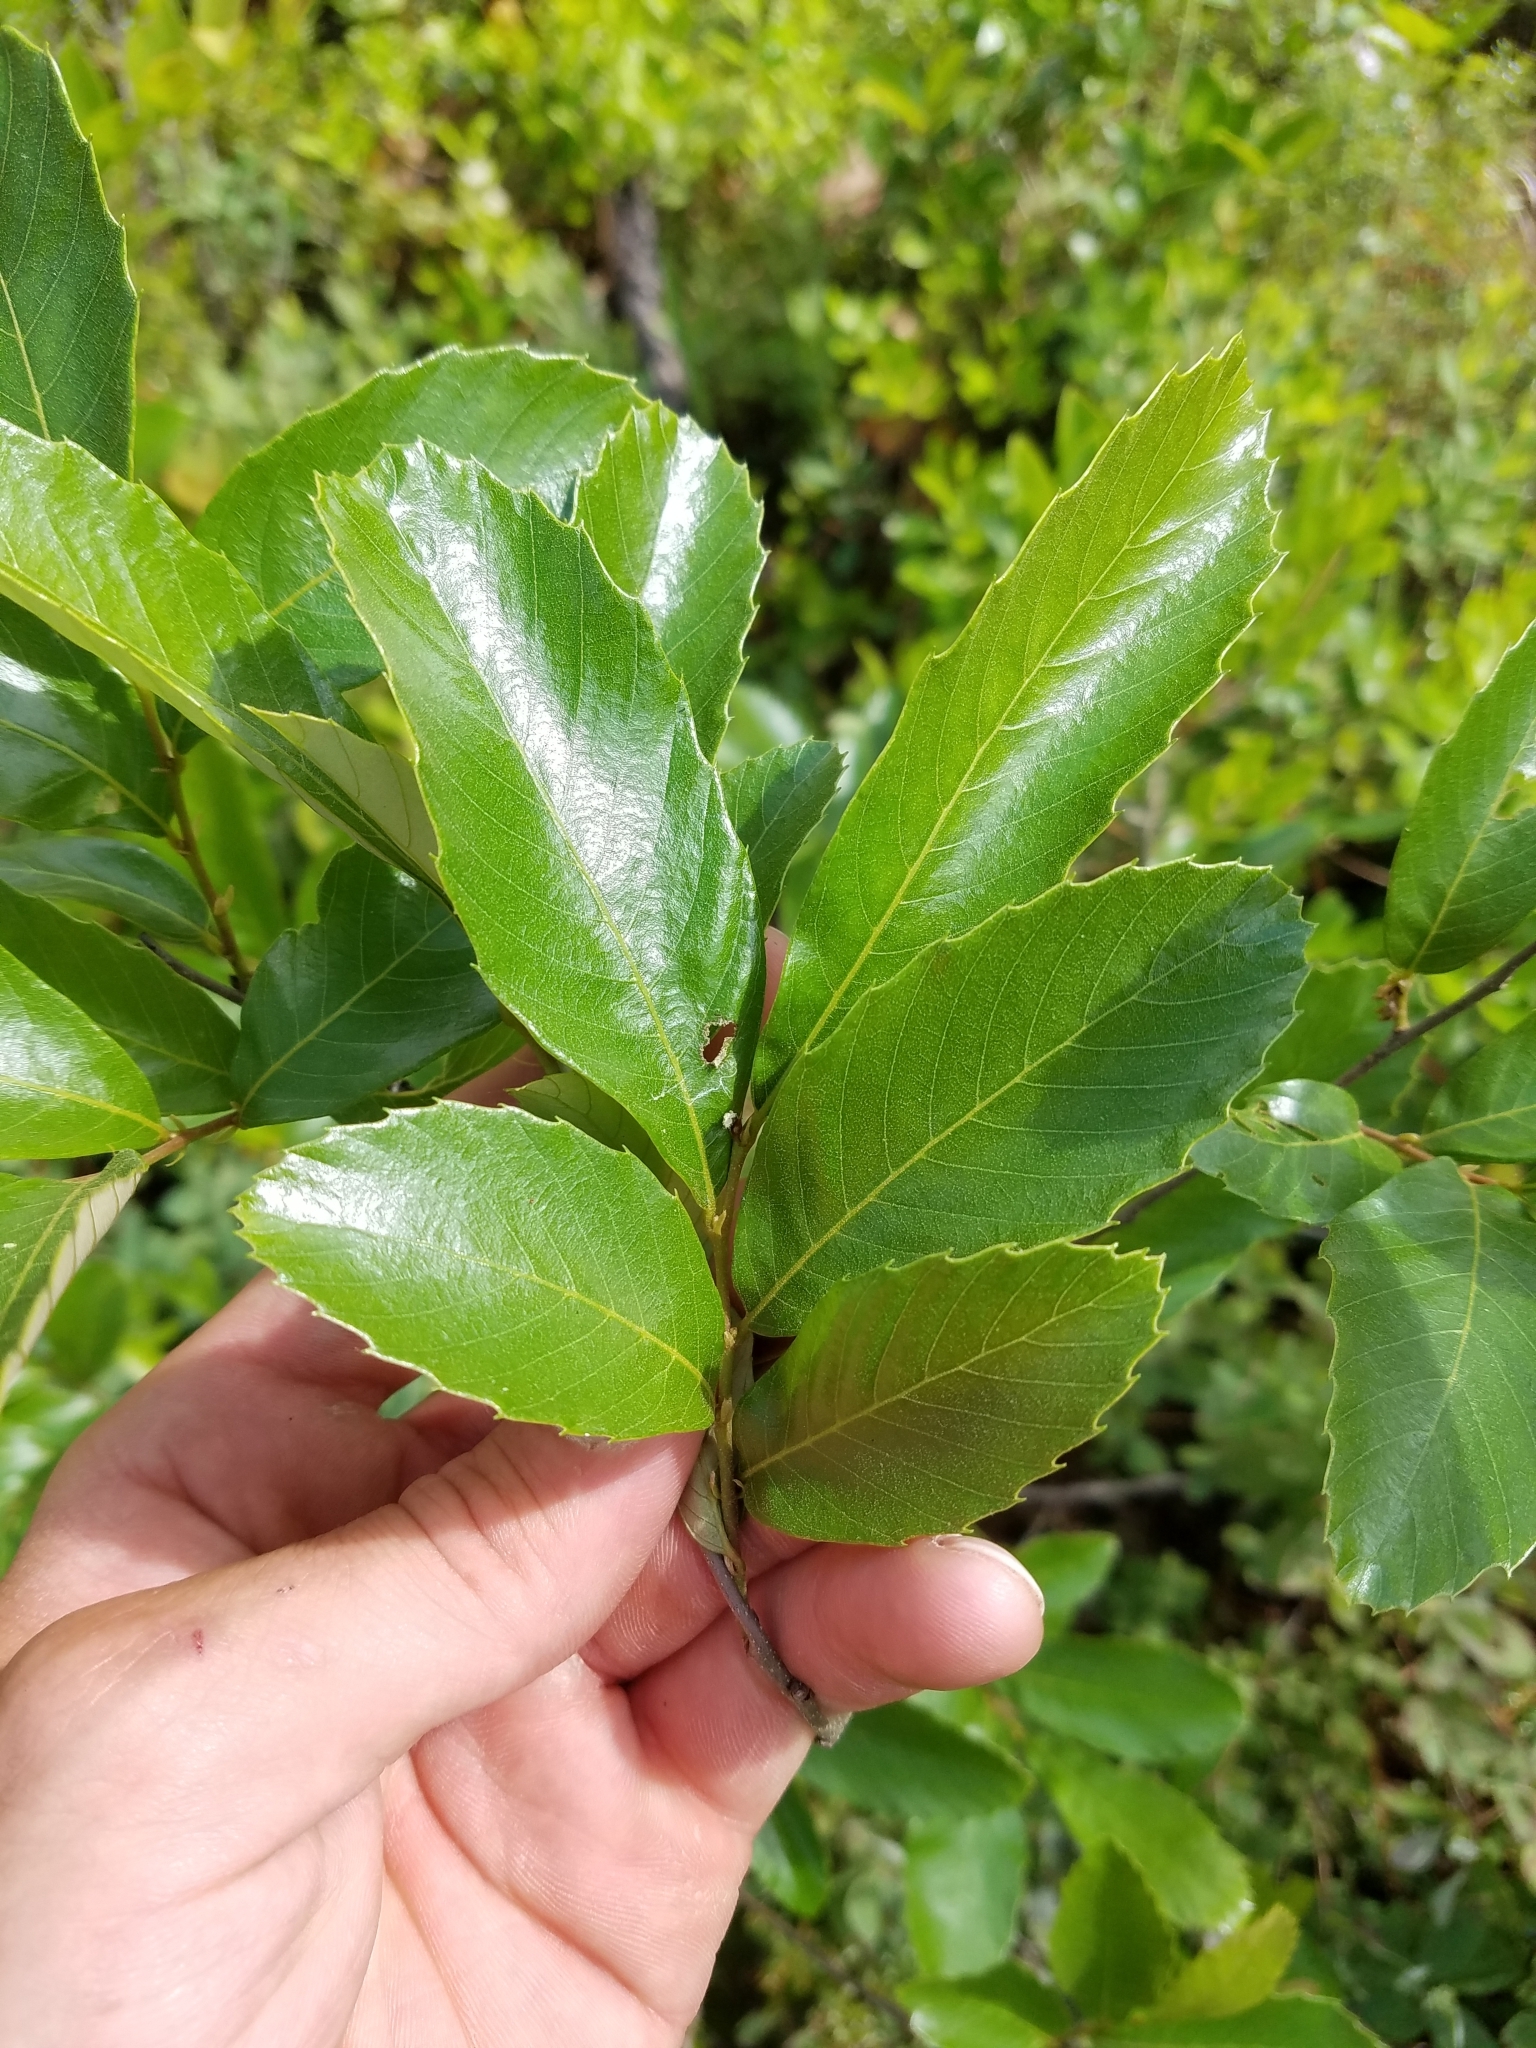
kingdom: Plantae
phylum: Tracheophyta
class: Magnoliopsida
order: Fagales
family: Fagaceae
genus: Castanea
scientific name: Castanea pumila
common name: Chinkapin
